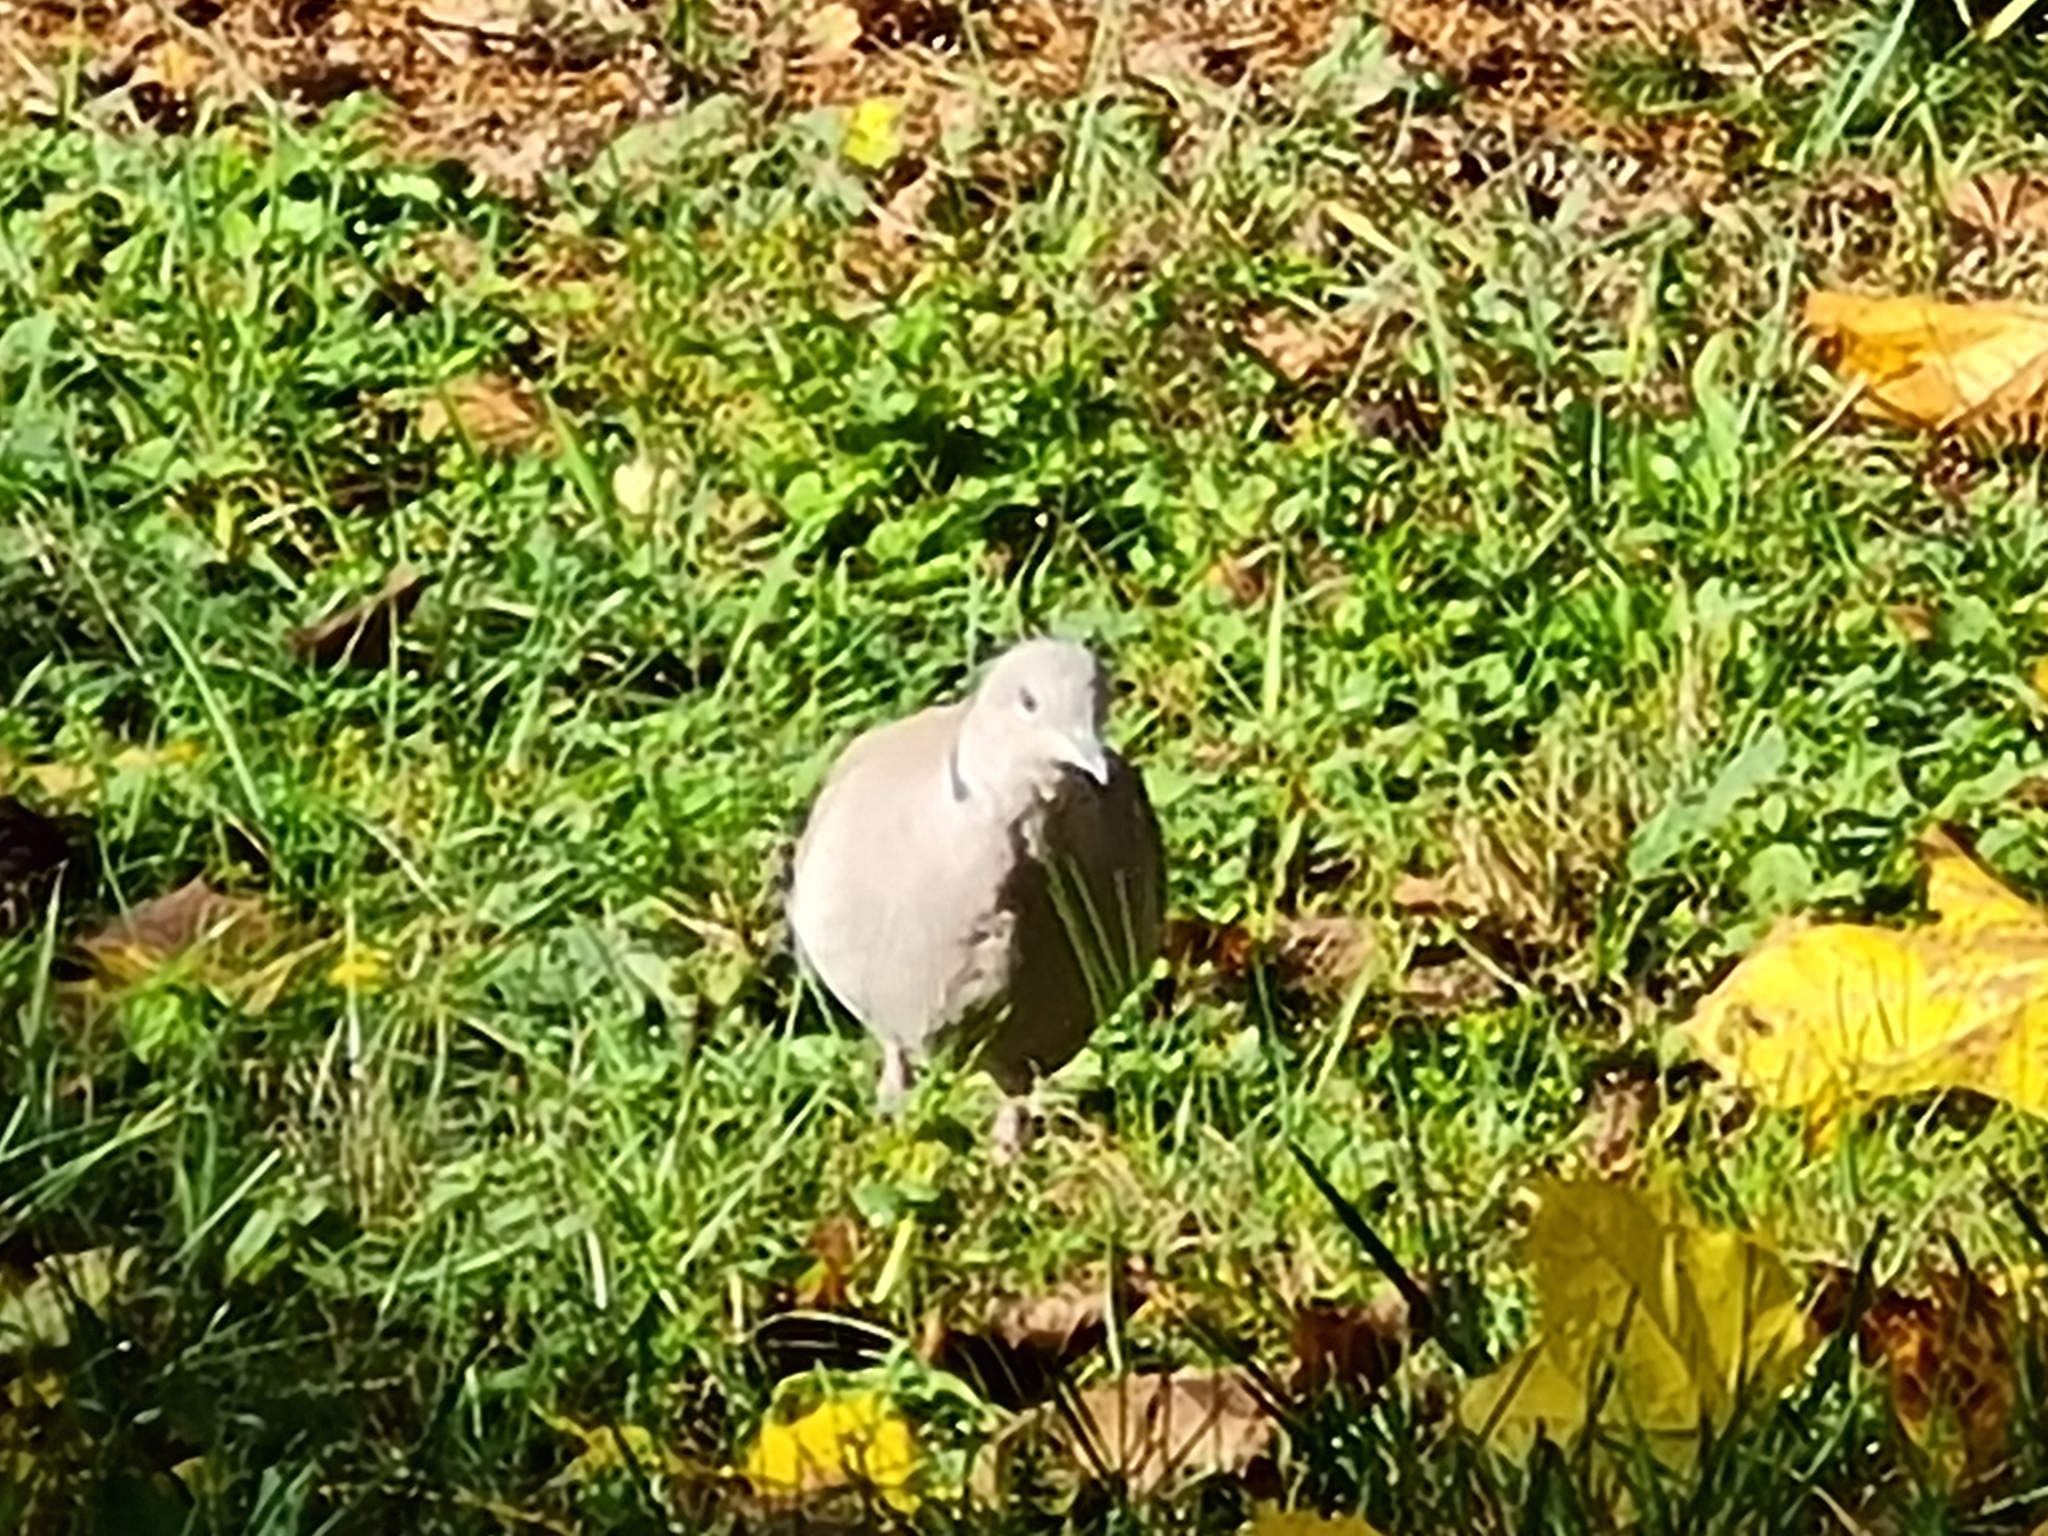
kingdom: Animalia
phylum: Chordata
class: Aves
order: Columbiformes
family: Columbidae
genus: Streptopelia
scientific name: Streptopelia decaocto
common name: Eurasian collared dove
